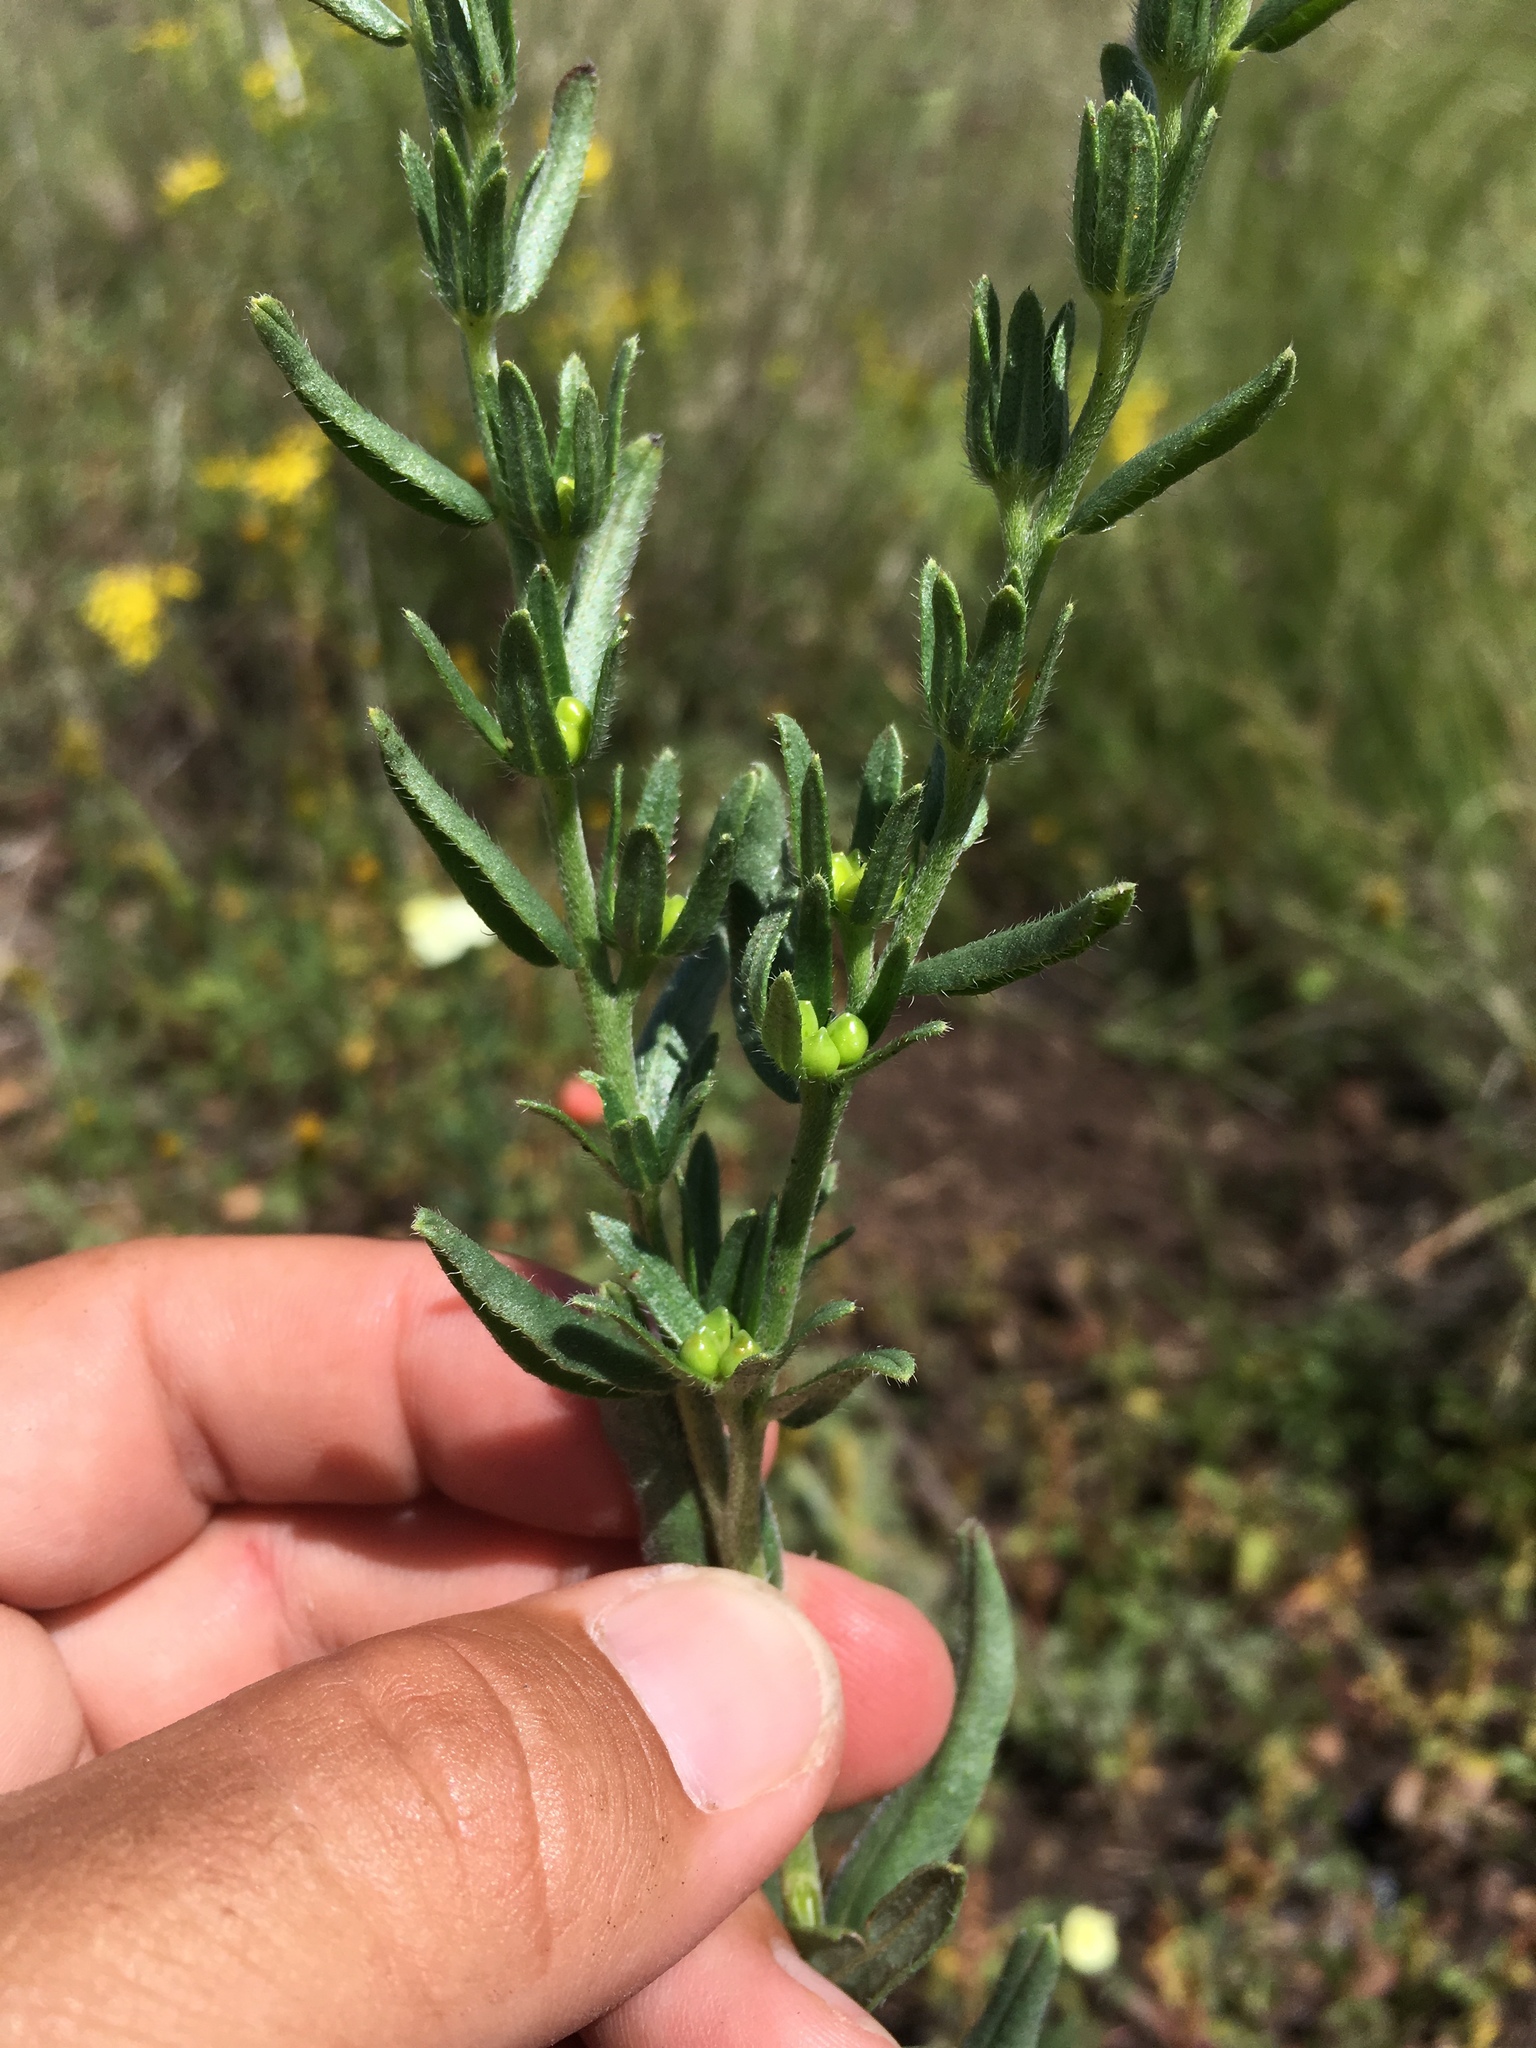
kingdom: Plantae
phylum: Tracheophyta
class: Magnoliopsida
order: Boraginales
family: Boraginaceae
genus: Lithospermum
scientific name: Lithospermum cobrense
